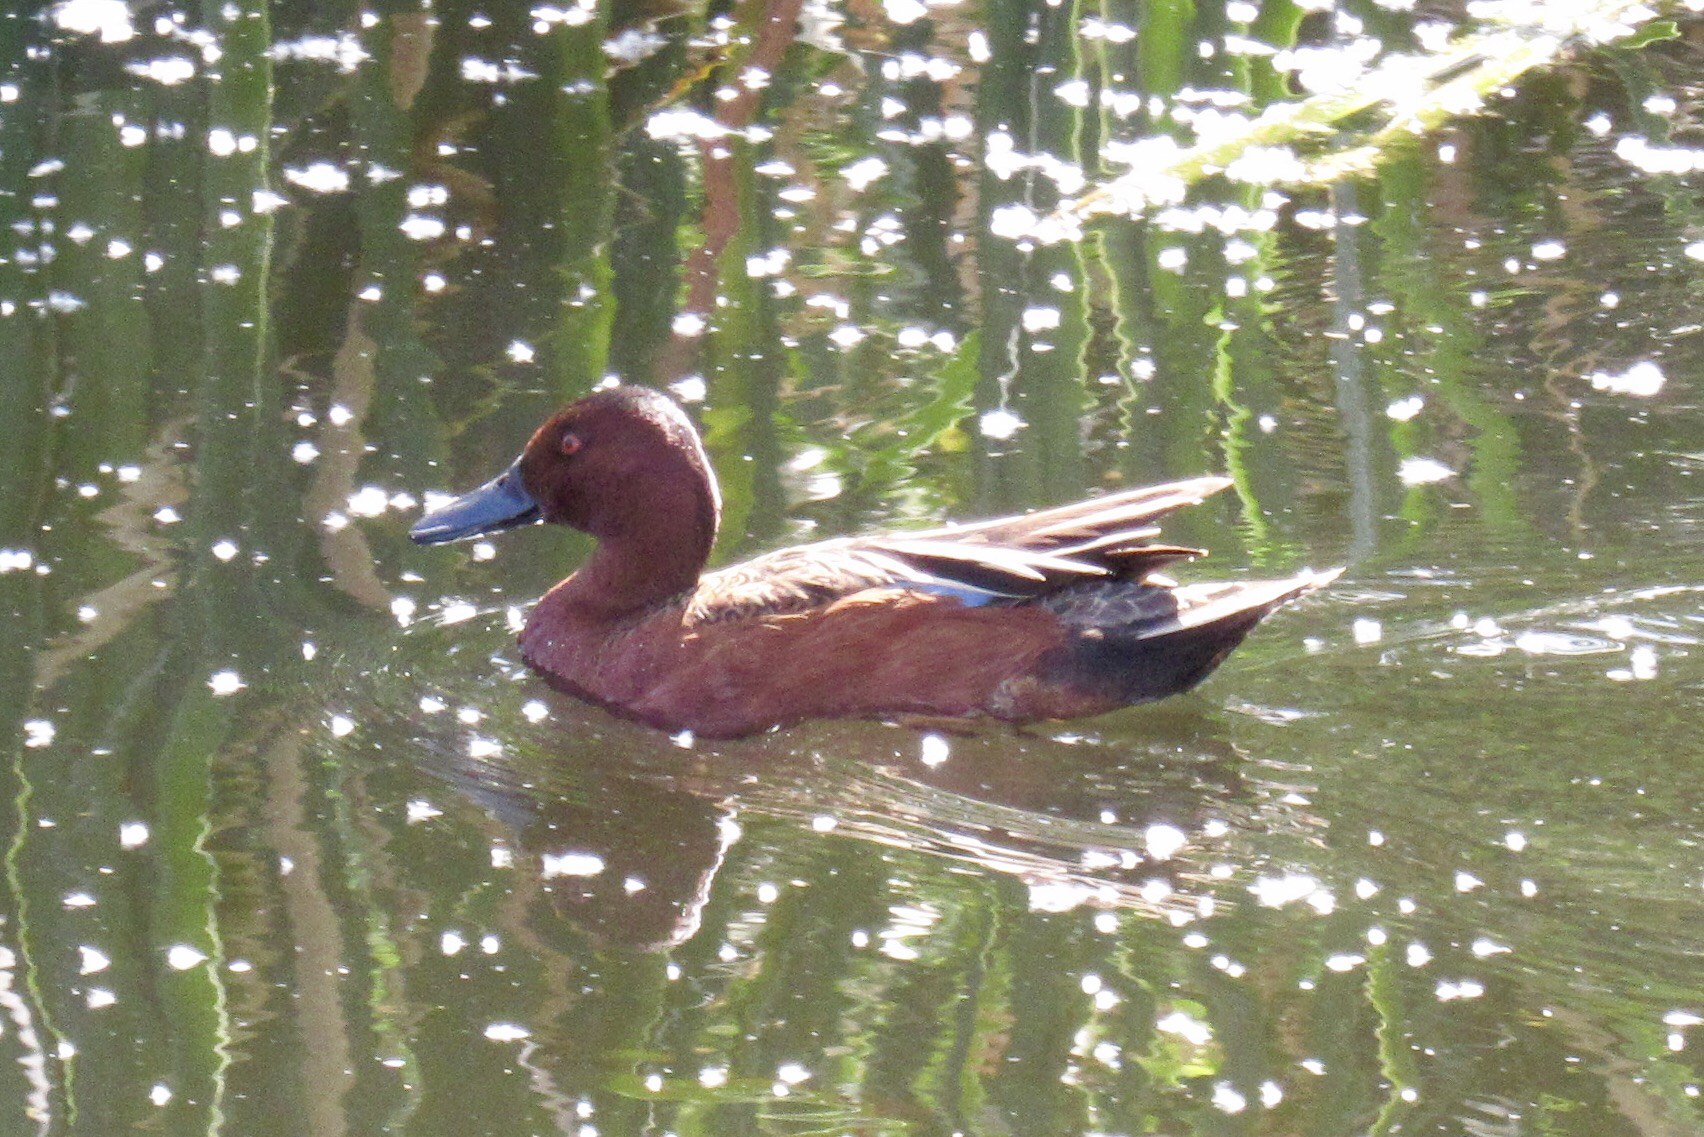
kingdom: Animalia
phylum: Chordata
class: Aves
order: Anseriformes
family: Anatidae
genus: Spatula
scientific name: Spatula cyanoptera
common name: Cinnamon teal
